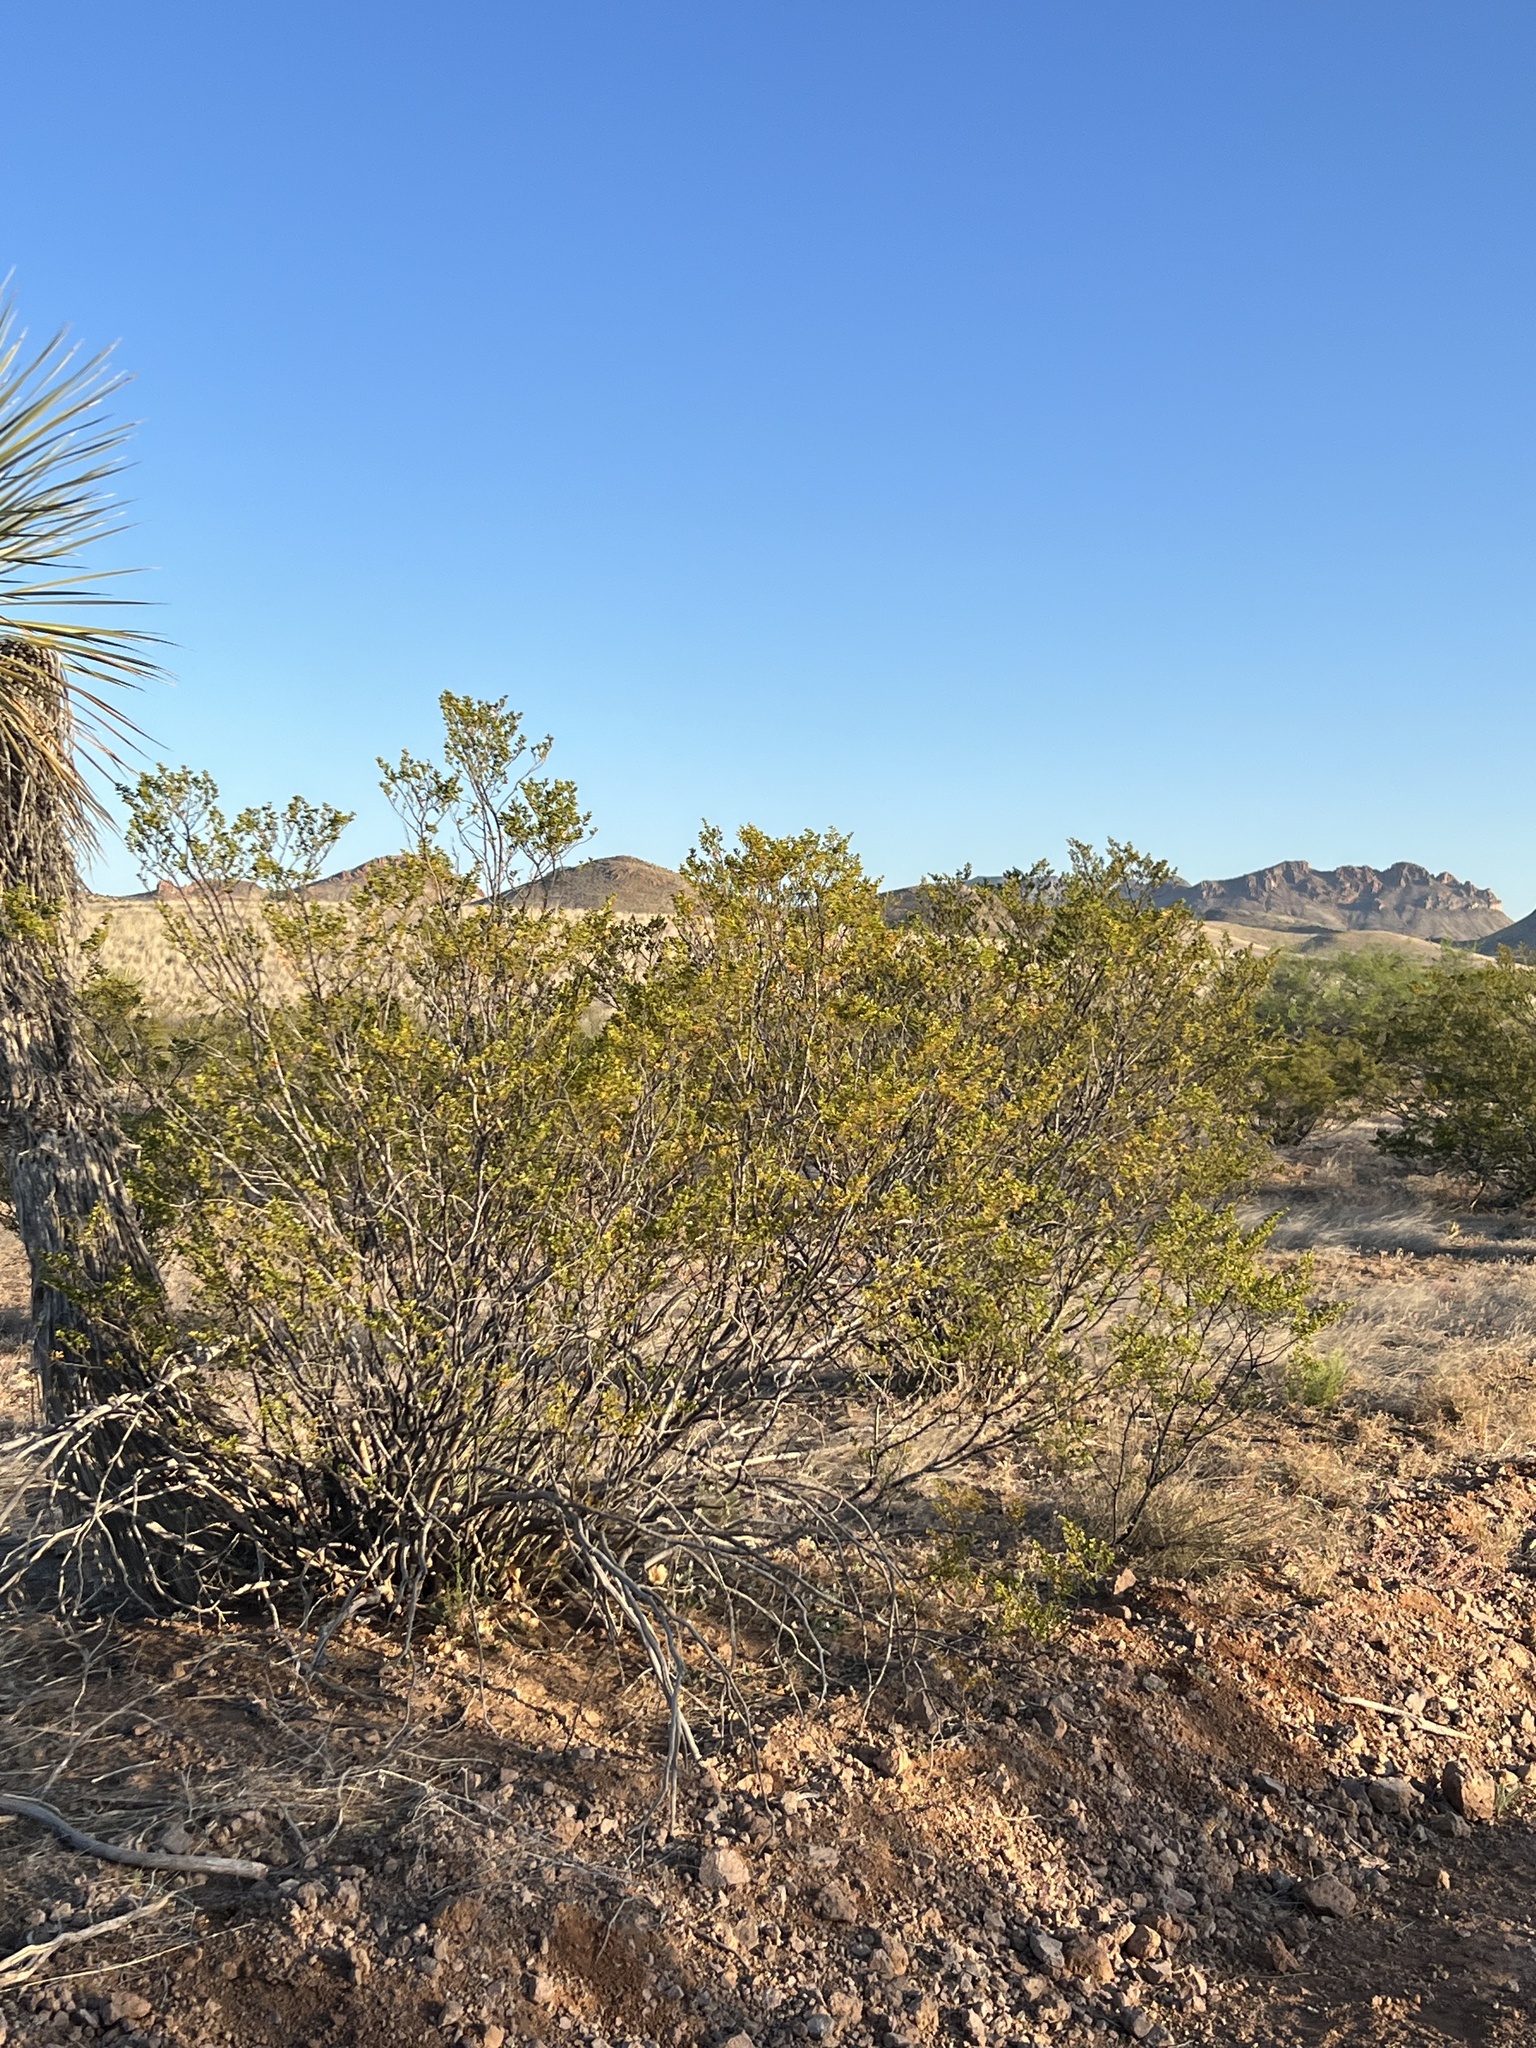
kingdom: Plantae
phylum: Tracheophyta
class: Magnoliopsida
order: Zygophyllales
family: Zygophyllaceae
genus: Larrea
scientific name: Larrea tridentata
